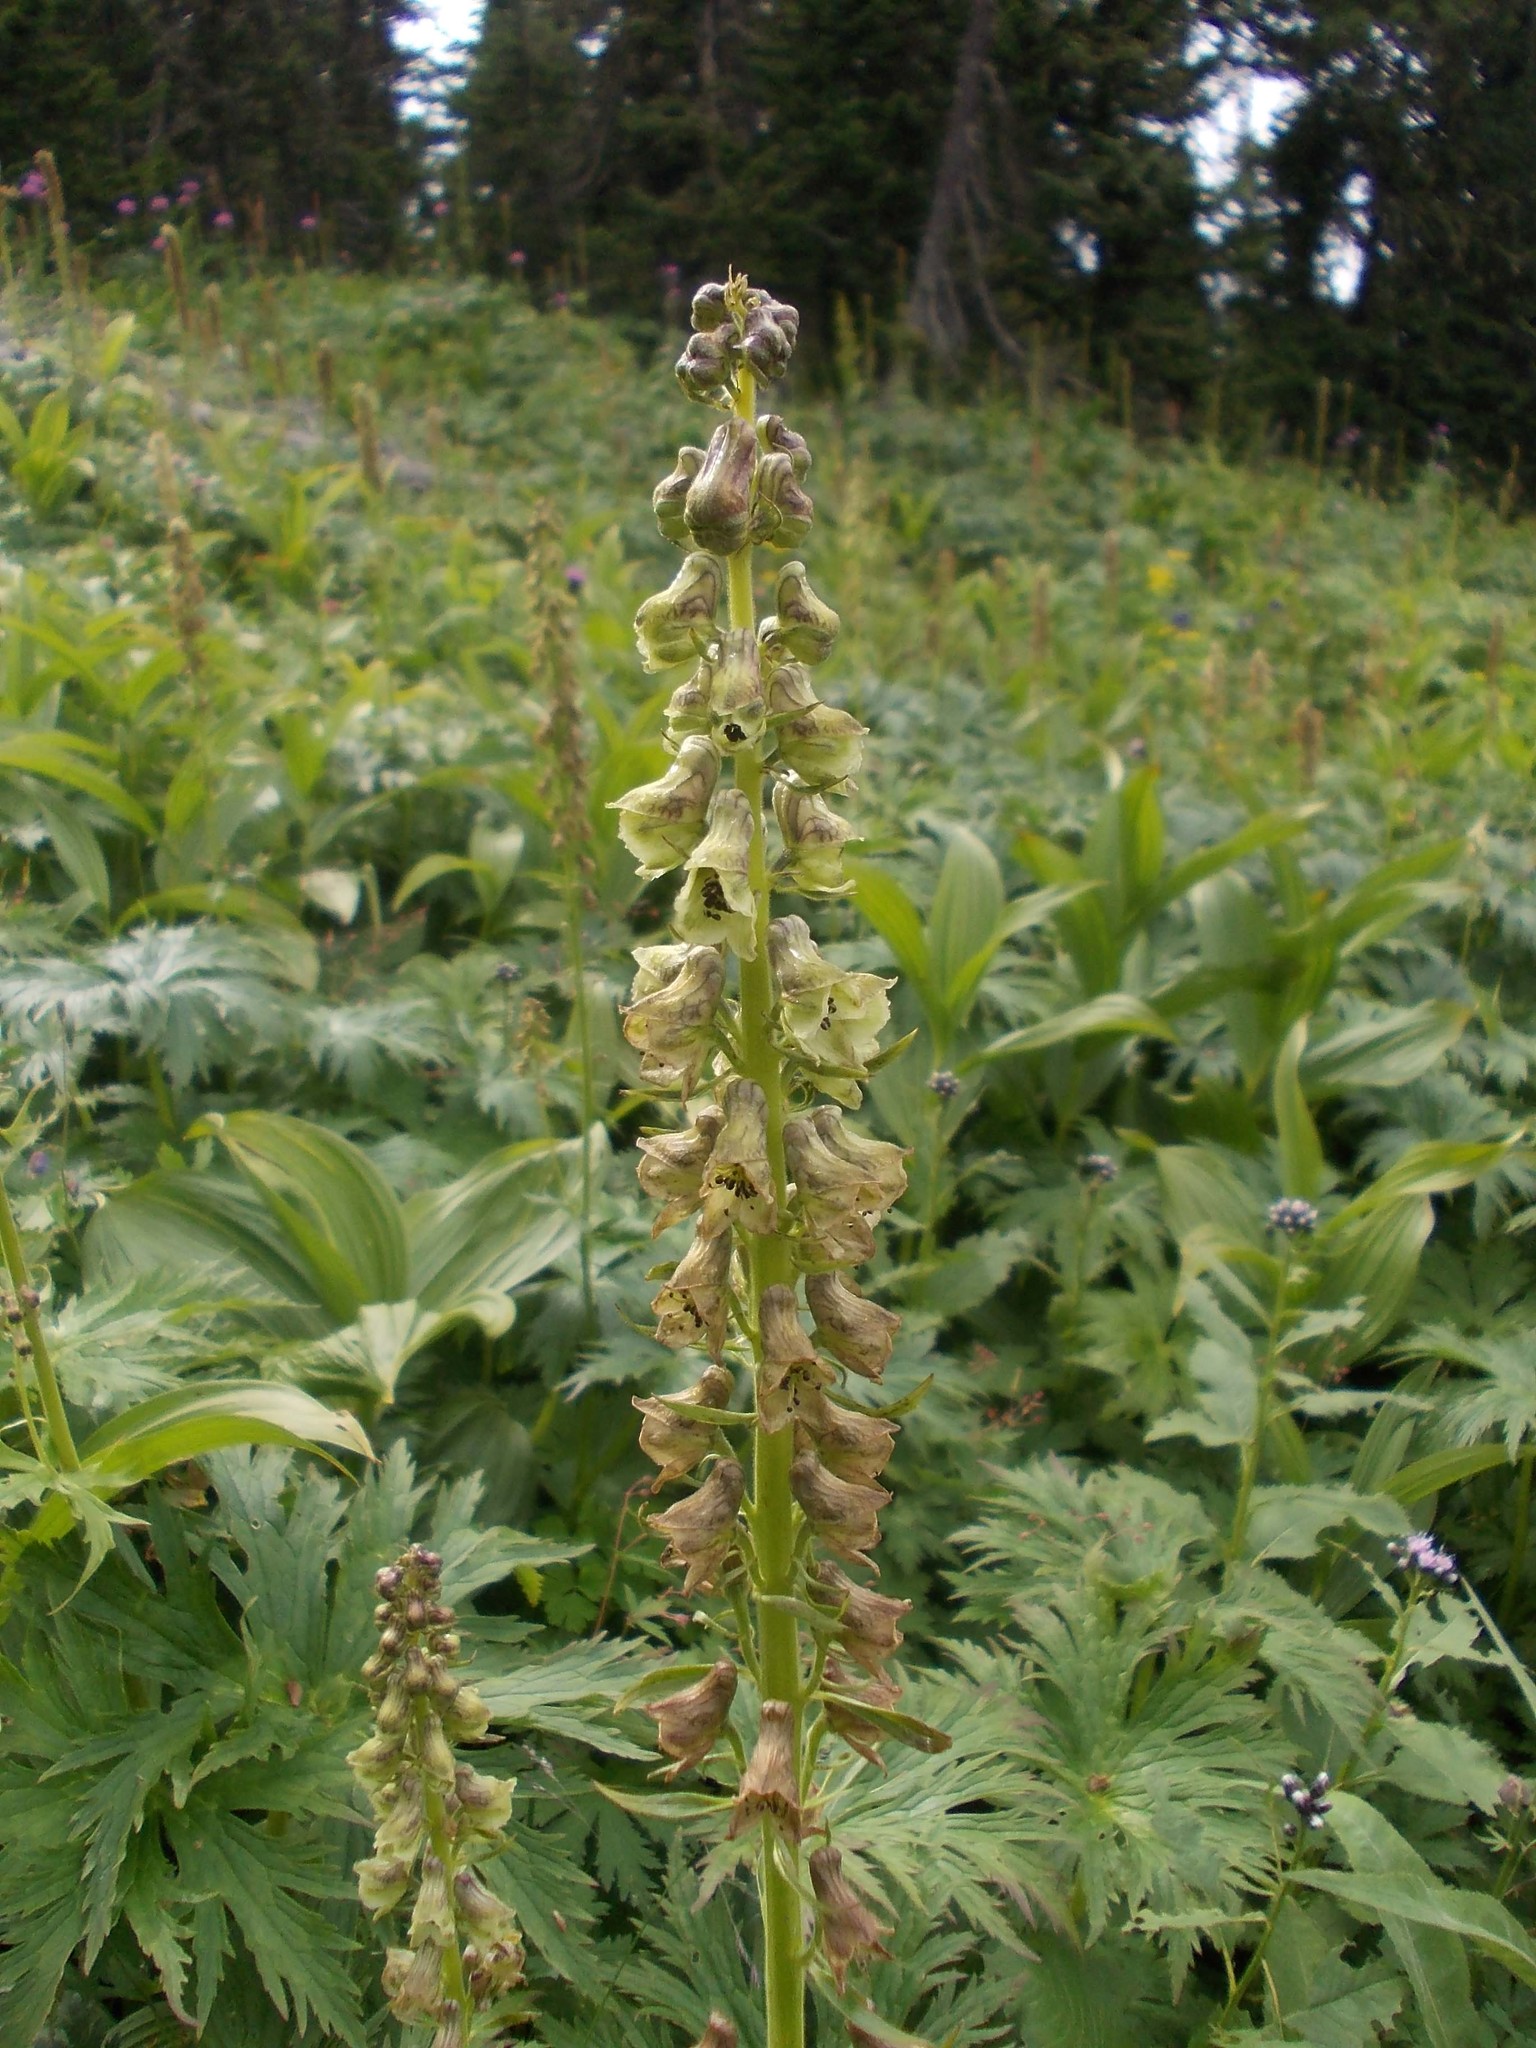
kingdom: Plantae
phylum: Tracheophyta
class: Magnoliopsida
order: Ranunculales
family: Ranunculaceae
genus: Aconitum
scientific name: Aconitum sajanense
